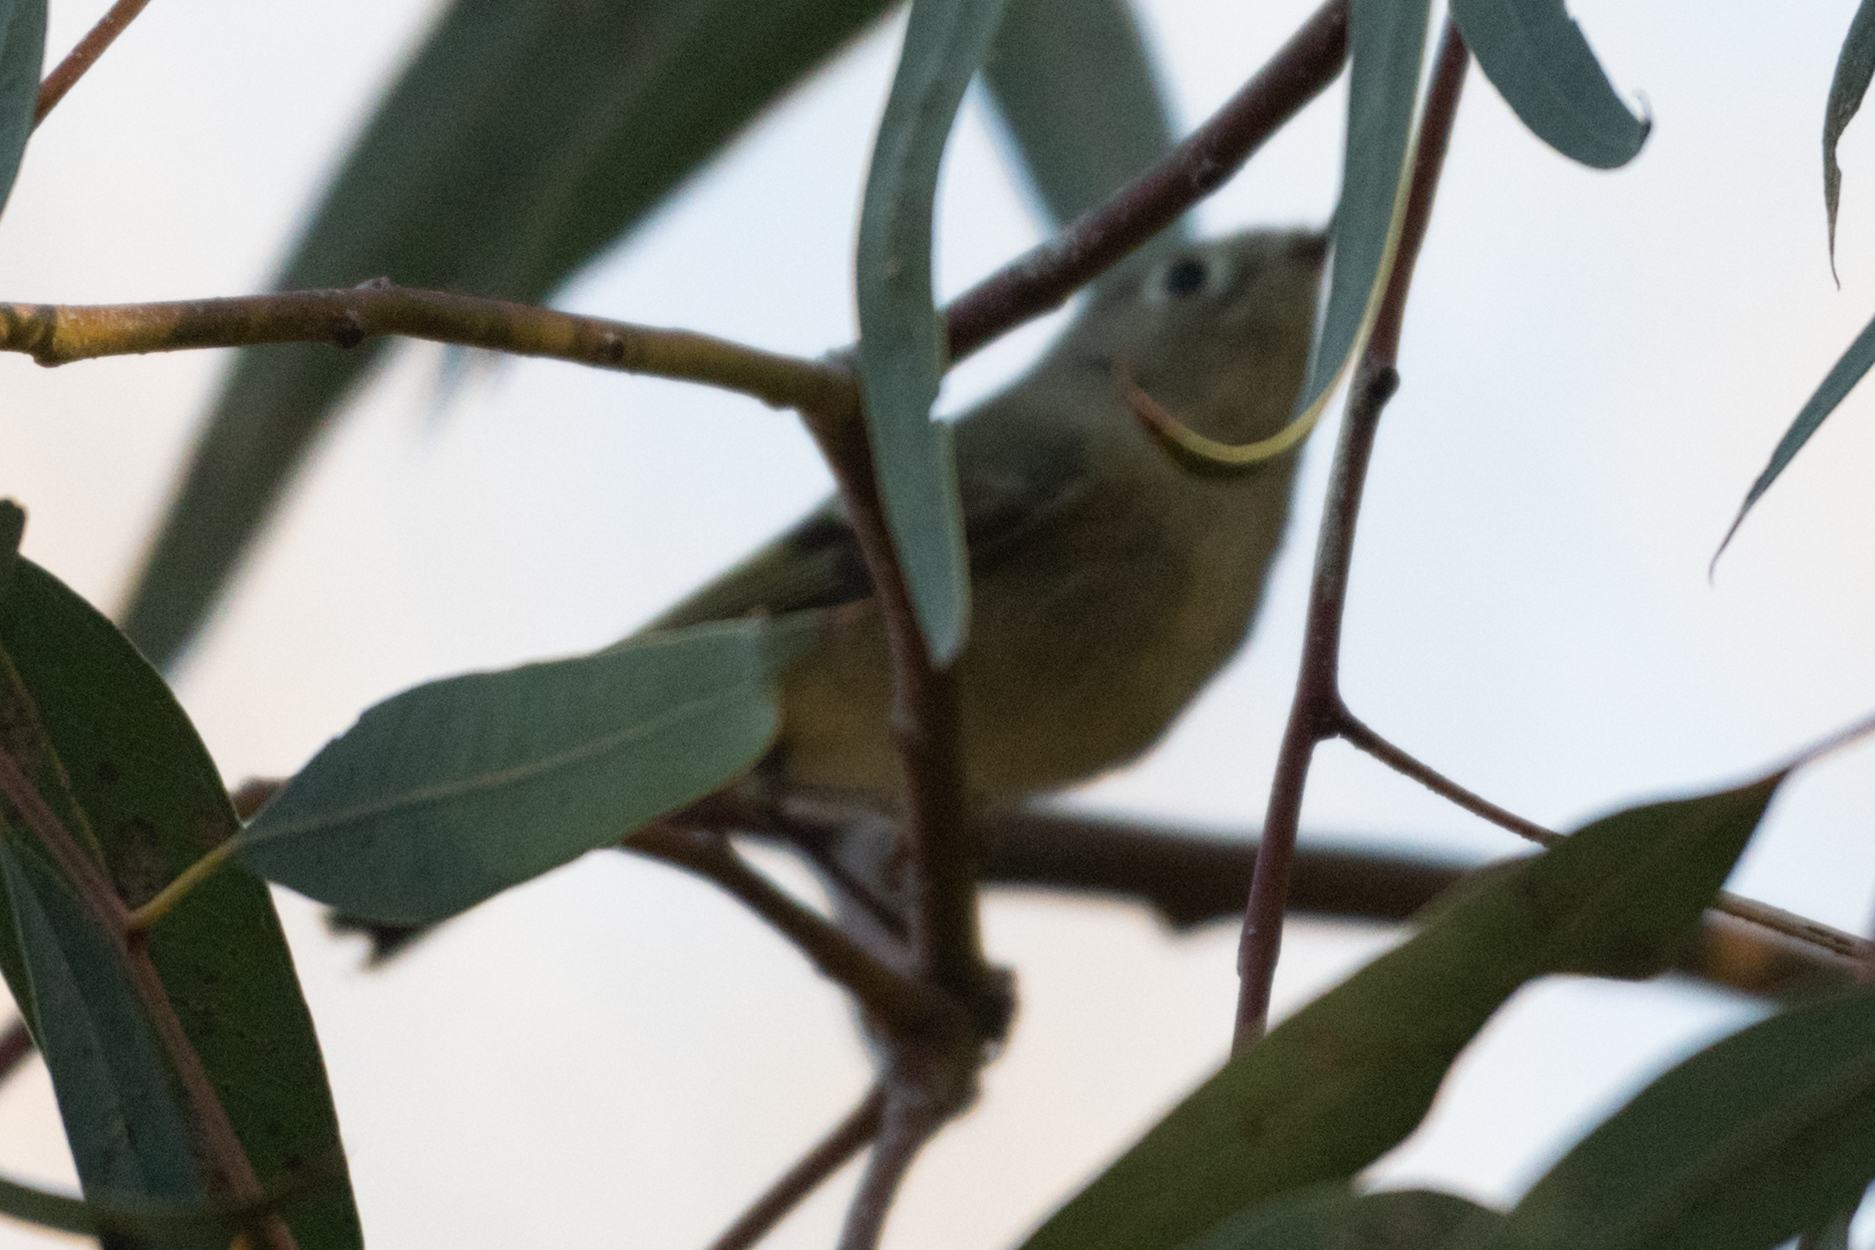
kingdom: Animalia
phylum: Chordata
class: Aves
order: Passeriformes
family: Regulidae
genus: Regulus
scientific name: Regulus calendula
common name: Ruby-crowned kinglet
